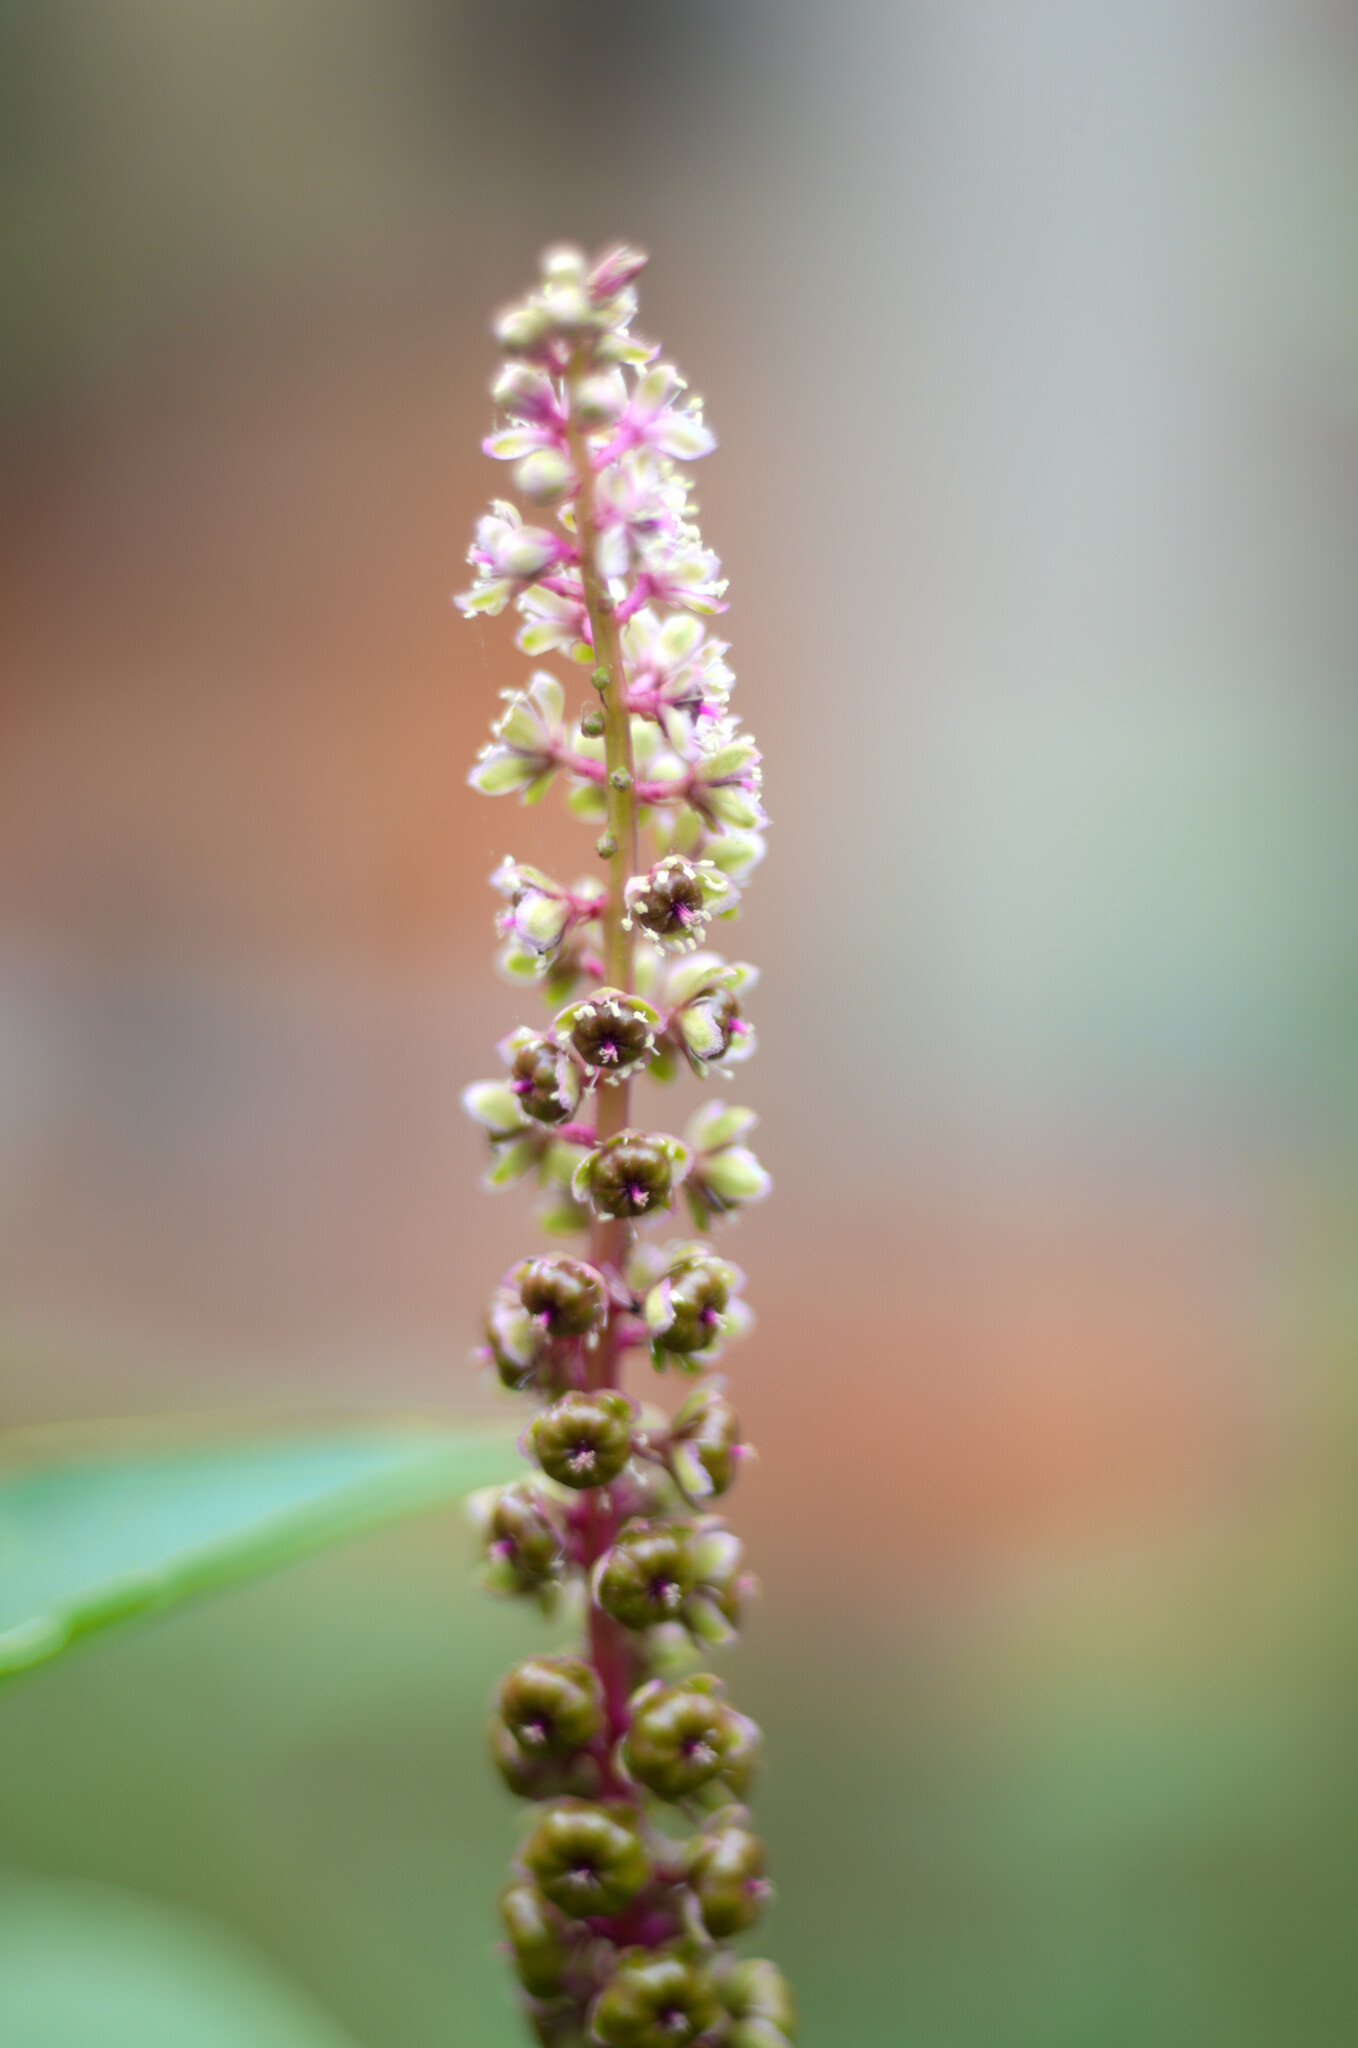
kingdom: Plantae
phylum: Tracheophyta
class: Magnoliopsida
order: Caryophyllales
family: Phytolaccaceae
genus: Phytolacca
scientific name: Phytolacca icosandra
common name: Button pokeweed
